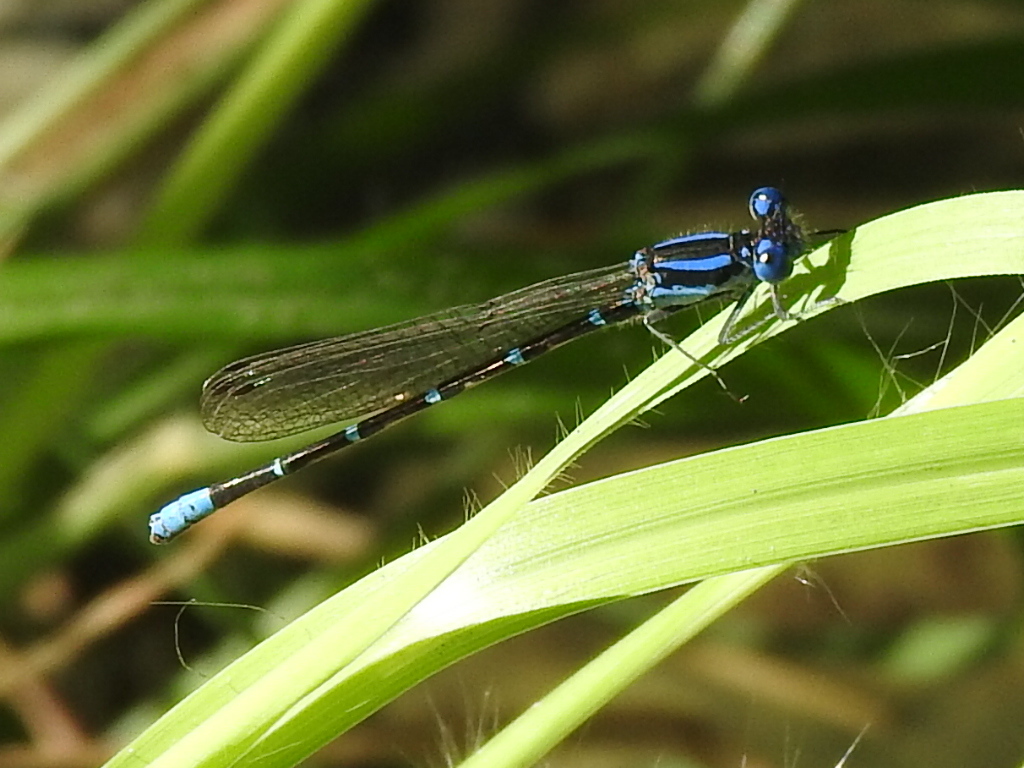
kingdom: Animalia
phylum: Arthropoda
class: Insecta
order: Odonata
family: Coenagrionidae
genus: Argia
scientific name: Argia sedula
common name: Blue-ringed dancer
